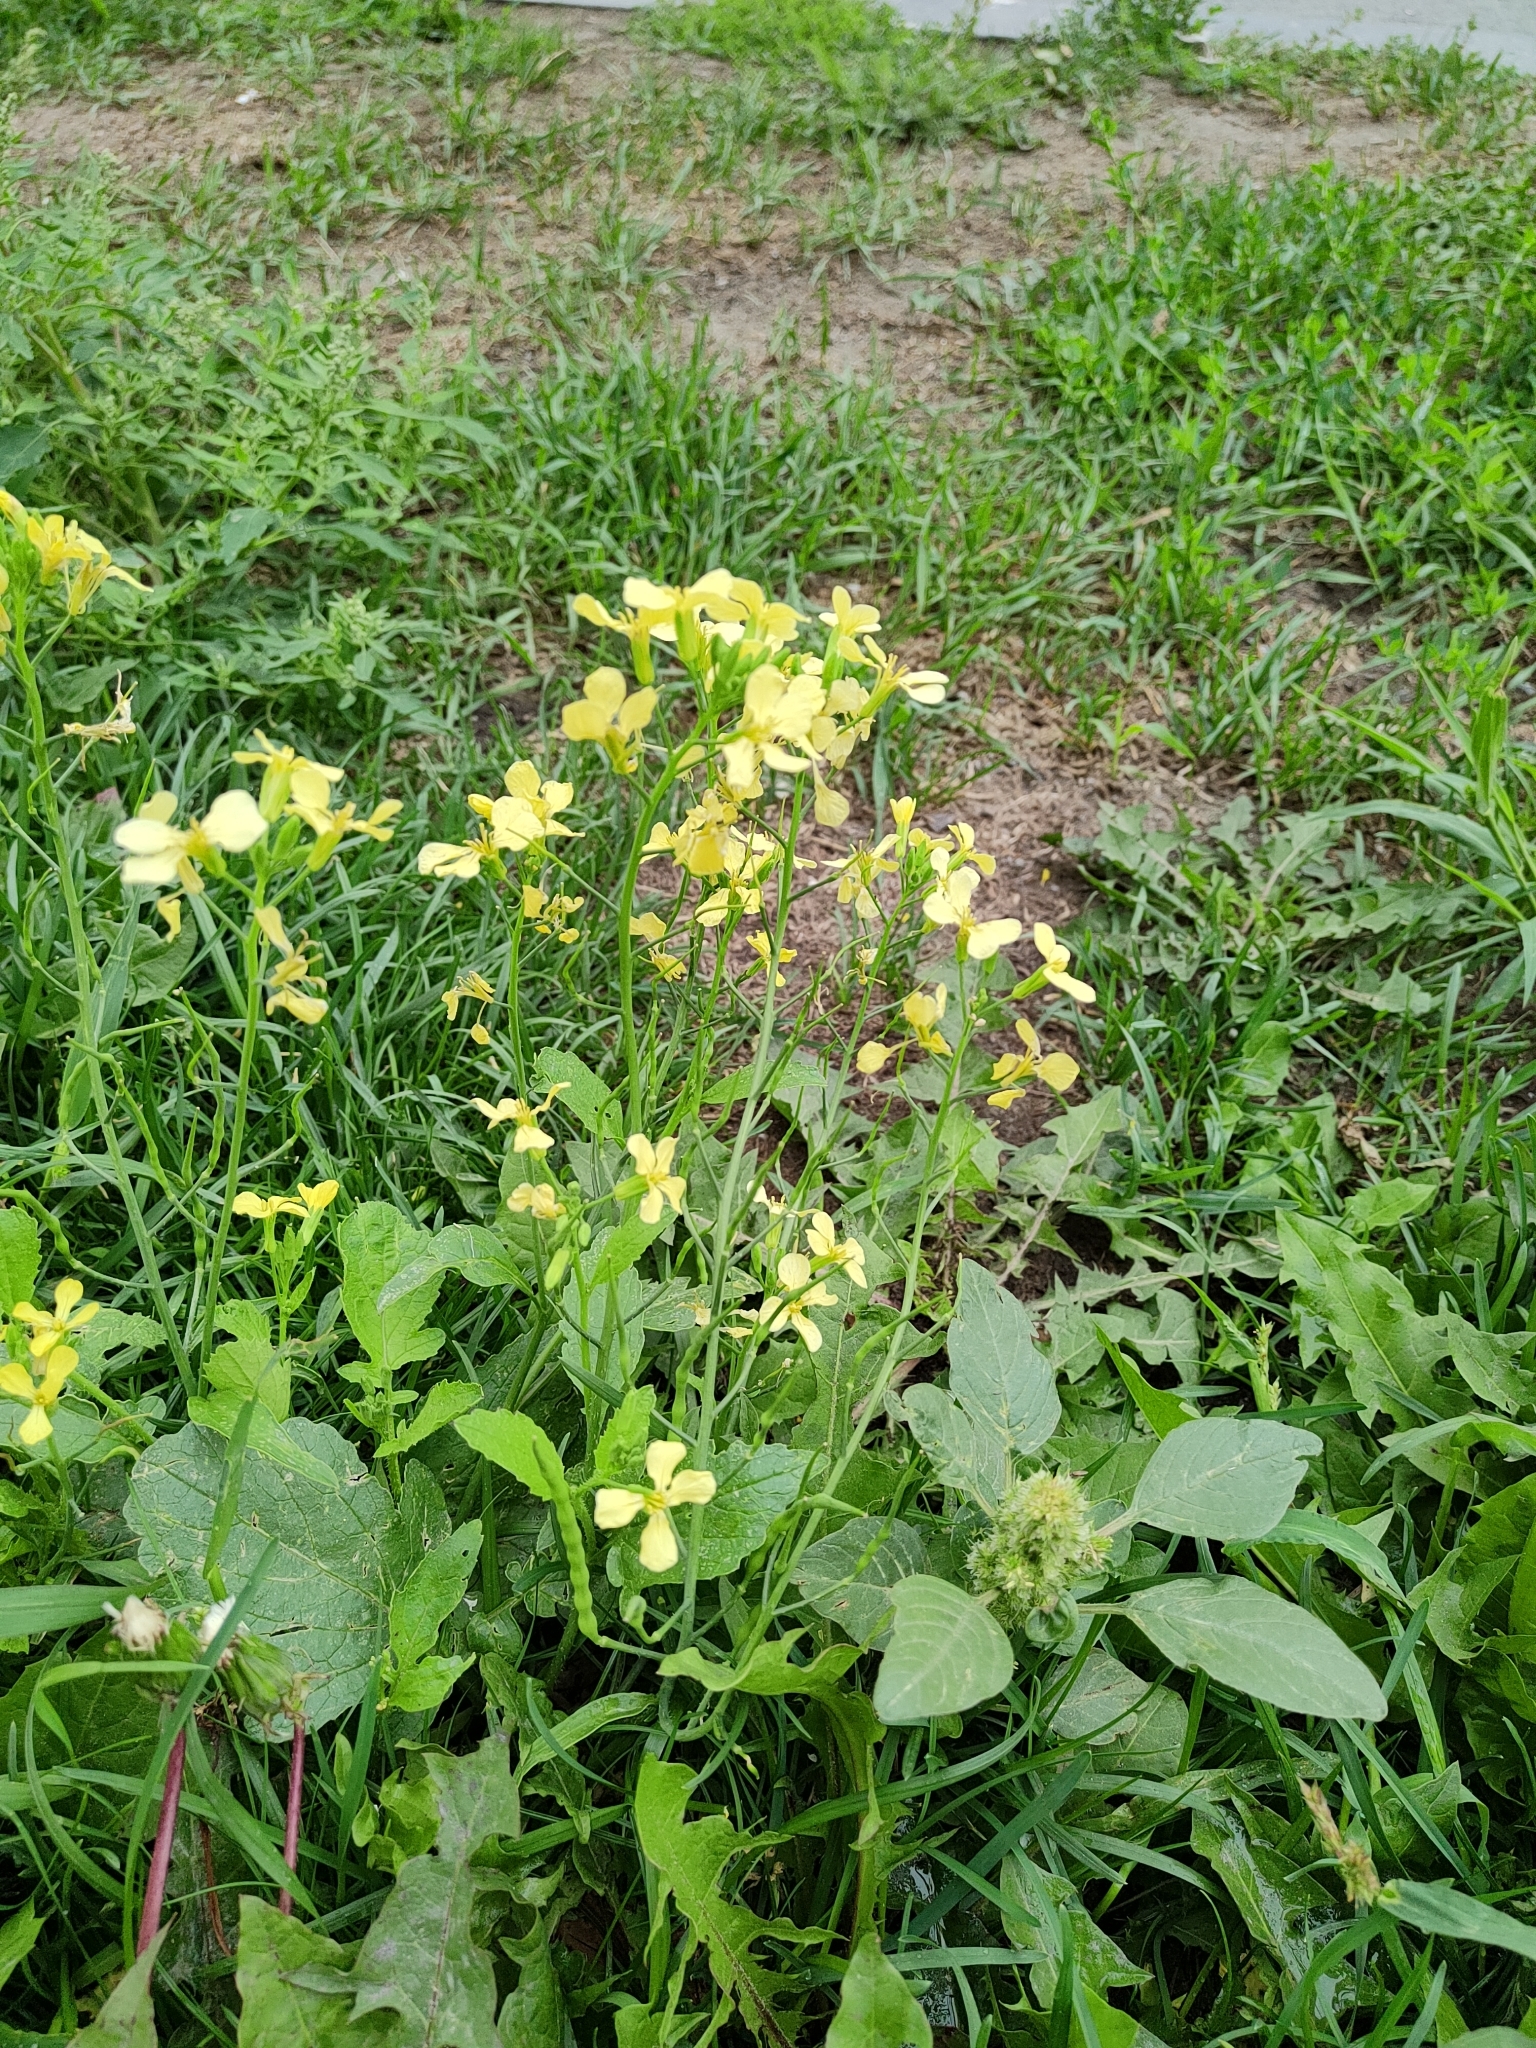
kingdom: Plantae
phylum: Tracheophyta
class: Magnoliopsida
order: Brassicales
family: Brassicaceae
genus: Raphanus
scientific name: Raphanus raphanistrum
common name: Wild radish
